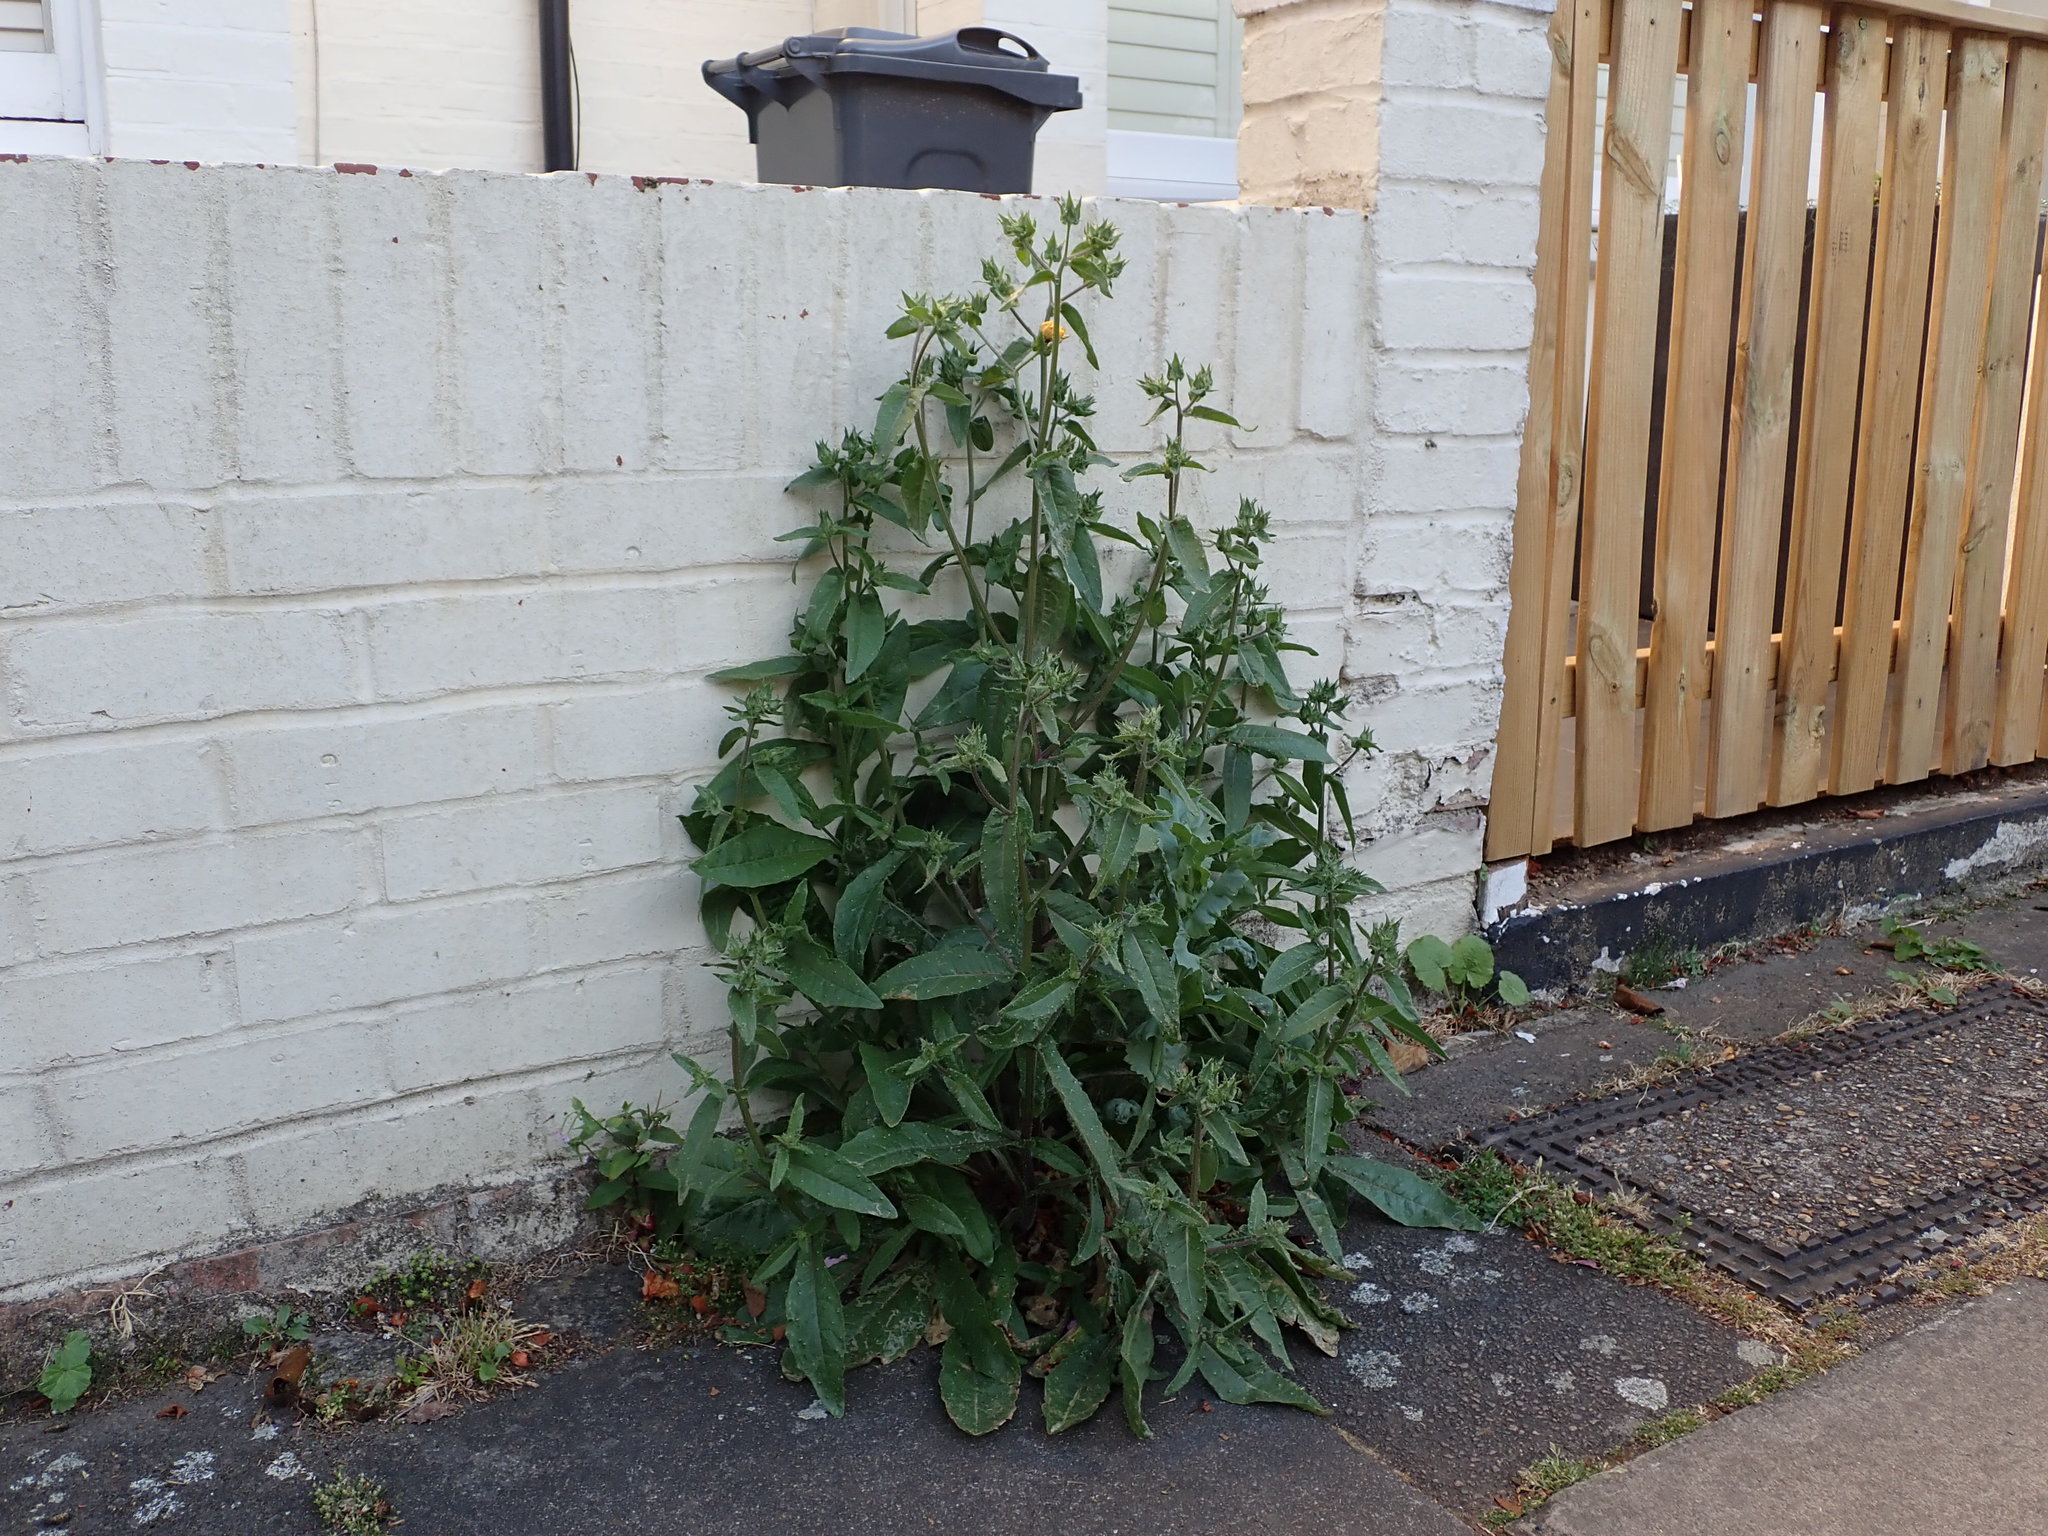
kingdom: Plantae
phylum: Tracheophyta
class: Magnoliopsida
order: Asterales
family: Asteraceae
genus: Helminthotheca
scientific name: Helminthotheca echioides
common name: Ox-tongue
